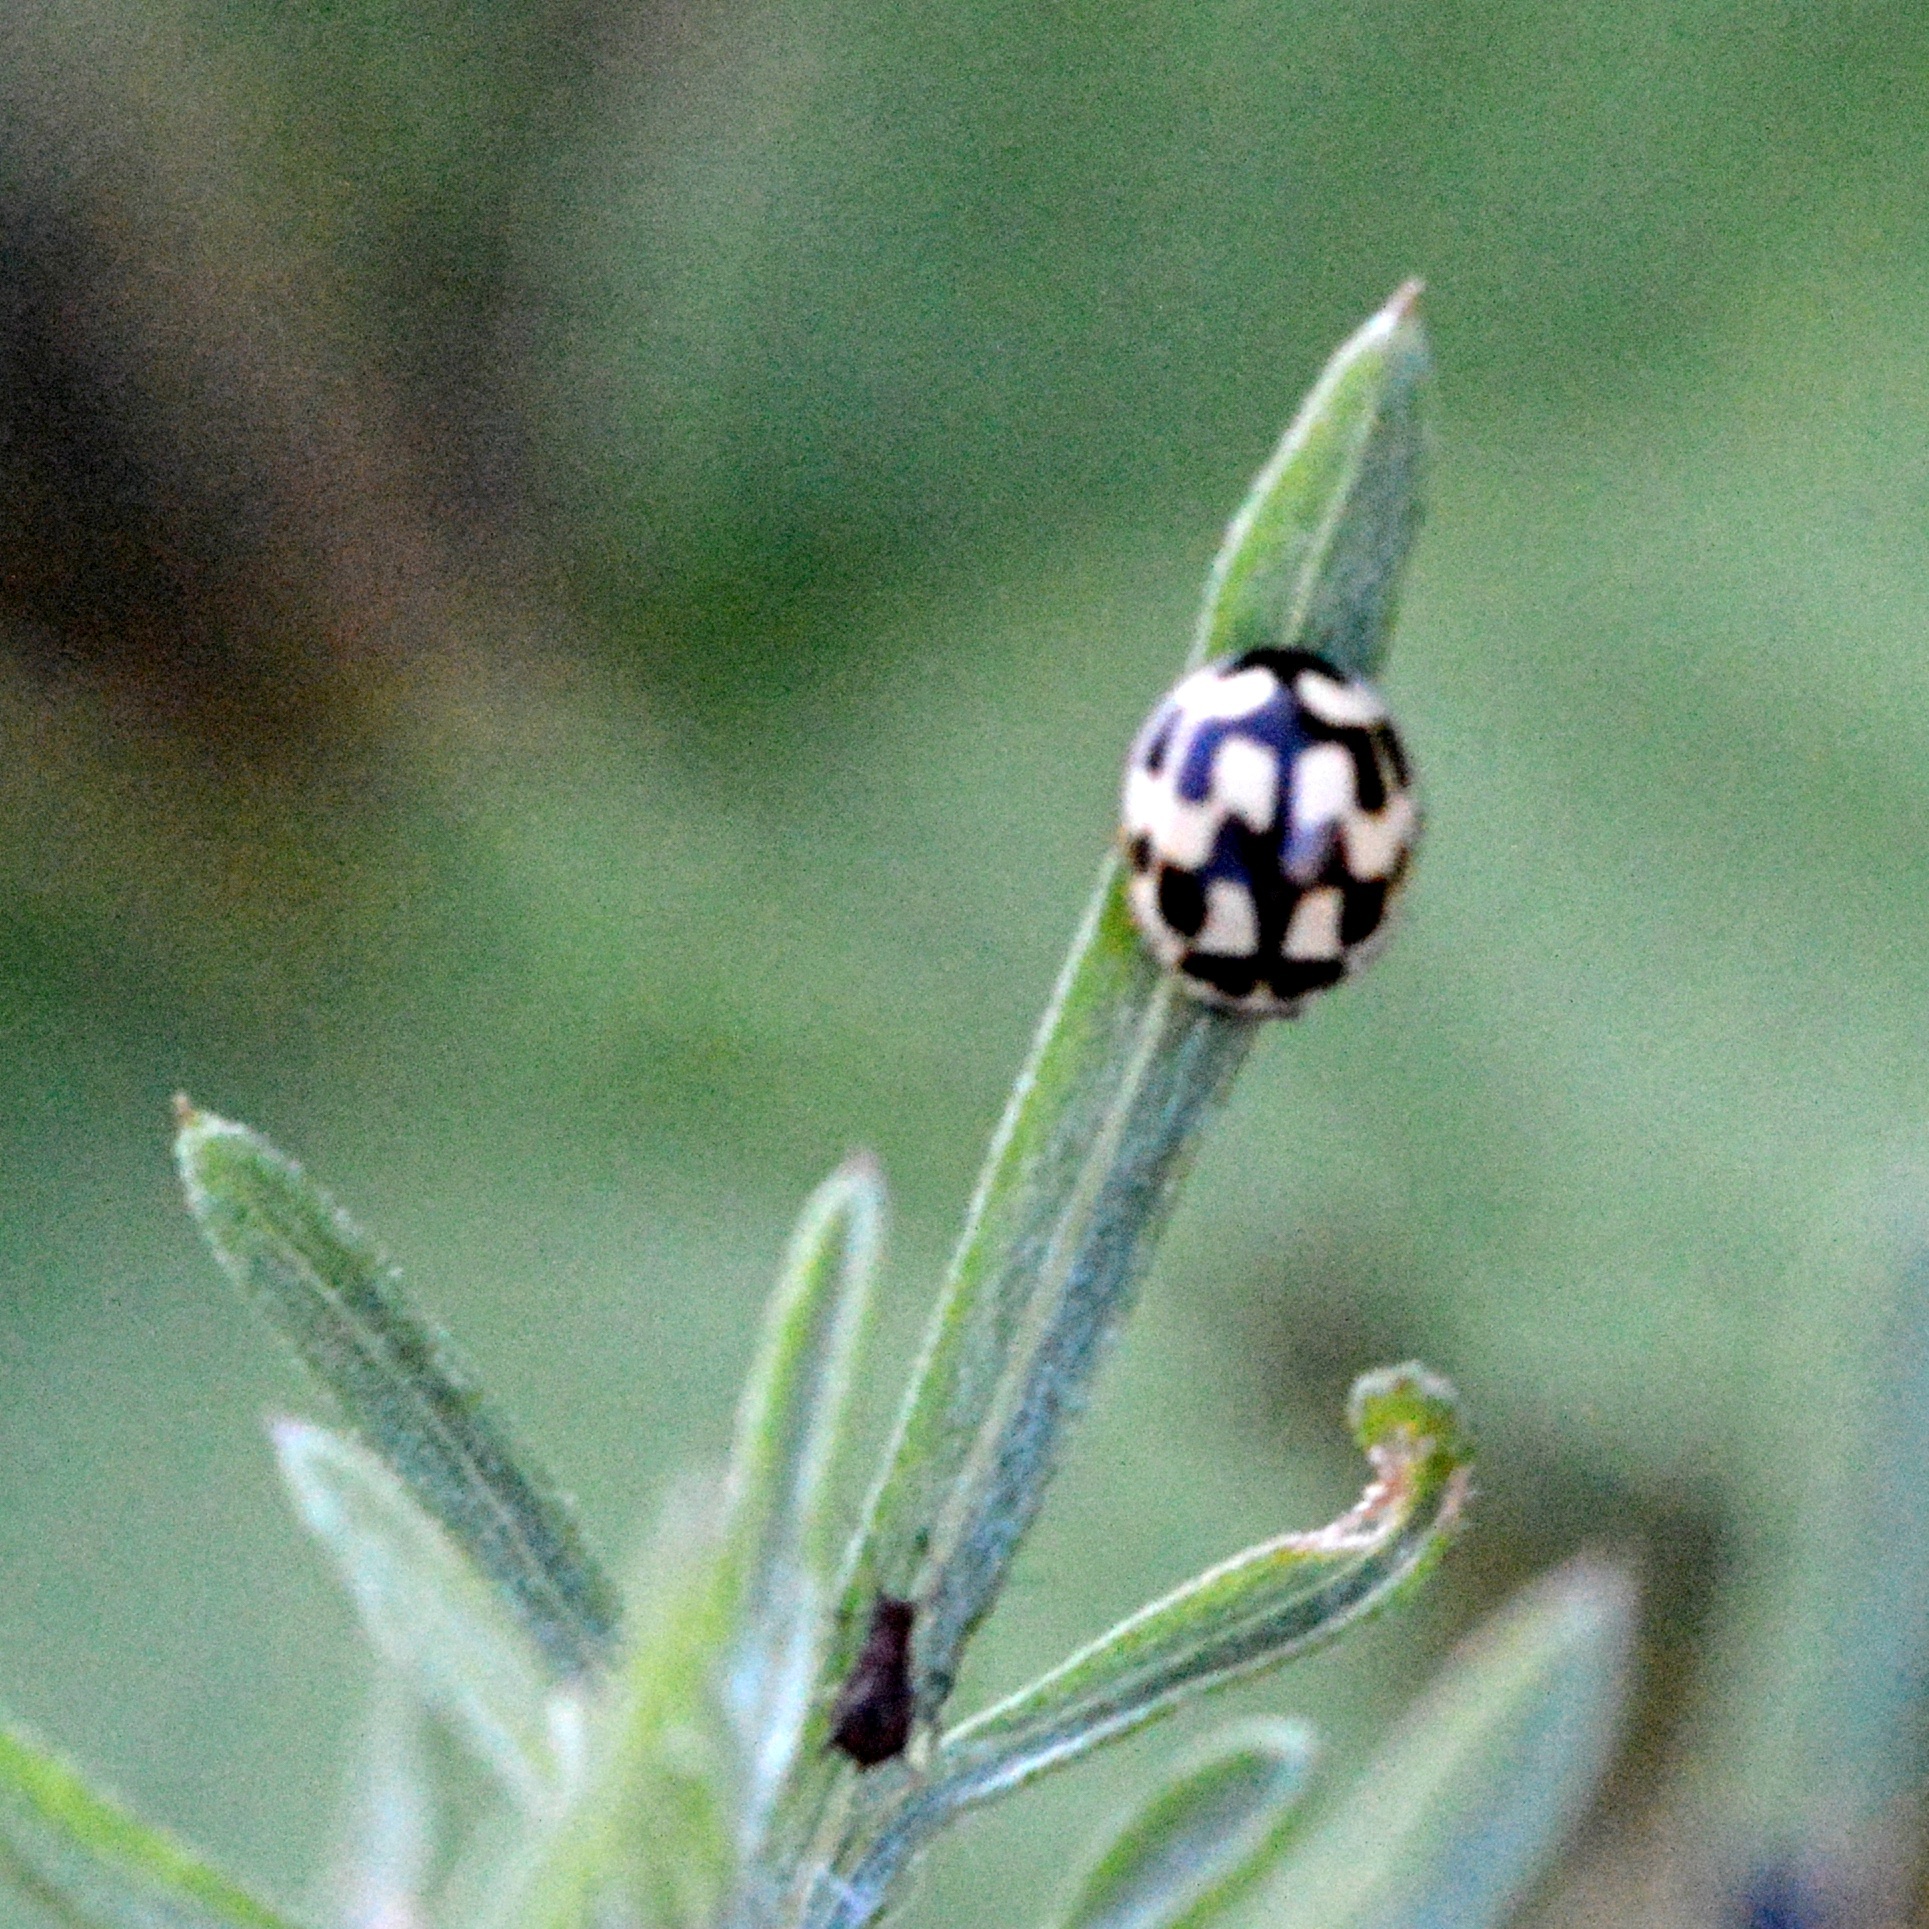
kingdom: Animalia
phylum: Arthropoda
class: Insecta
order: Coleoptera
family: Coccinellidae
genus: Propylaea
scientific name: Propylaea quatuordecimpunctata
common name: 14-spotted ladybird beetle
